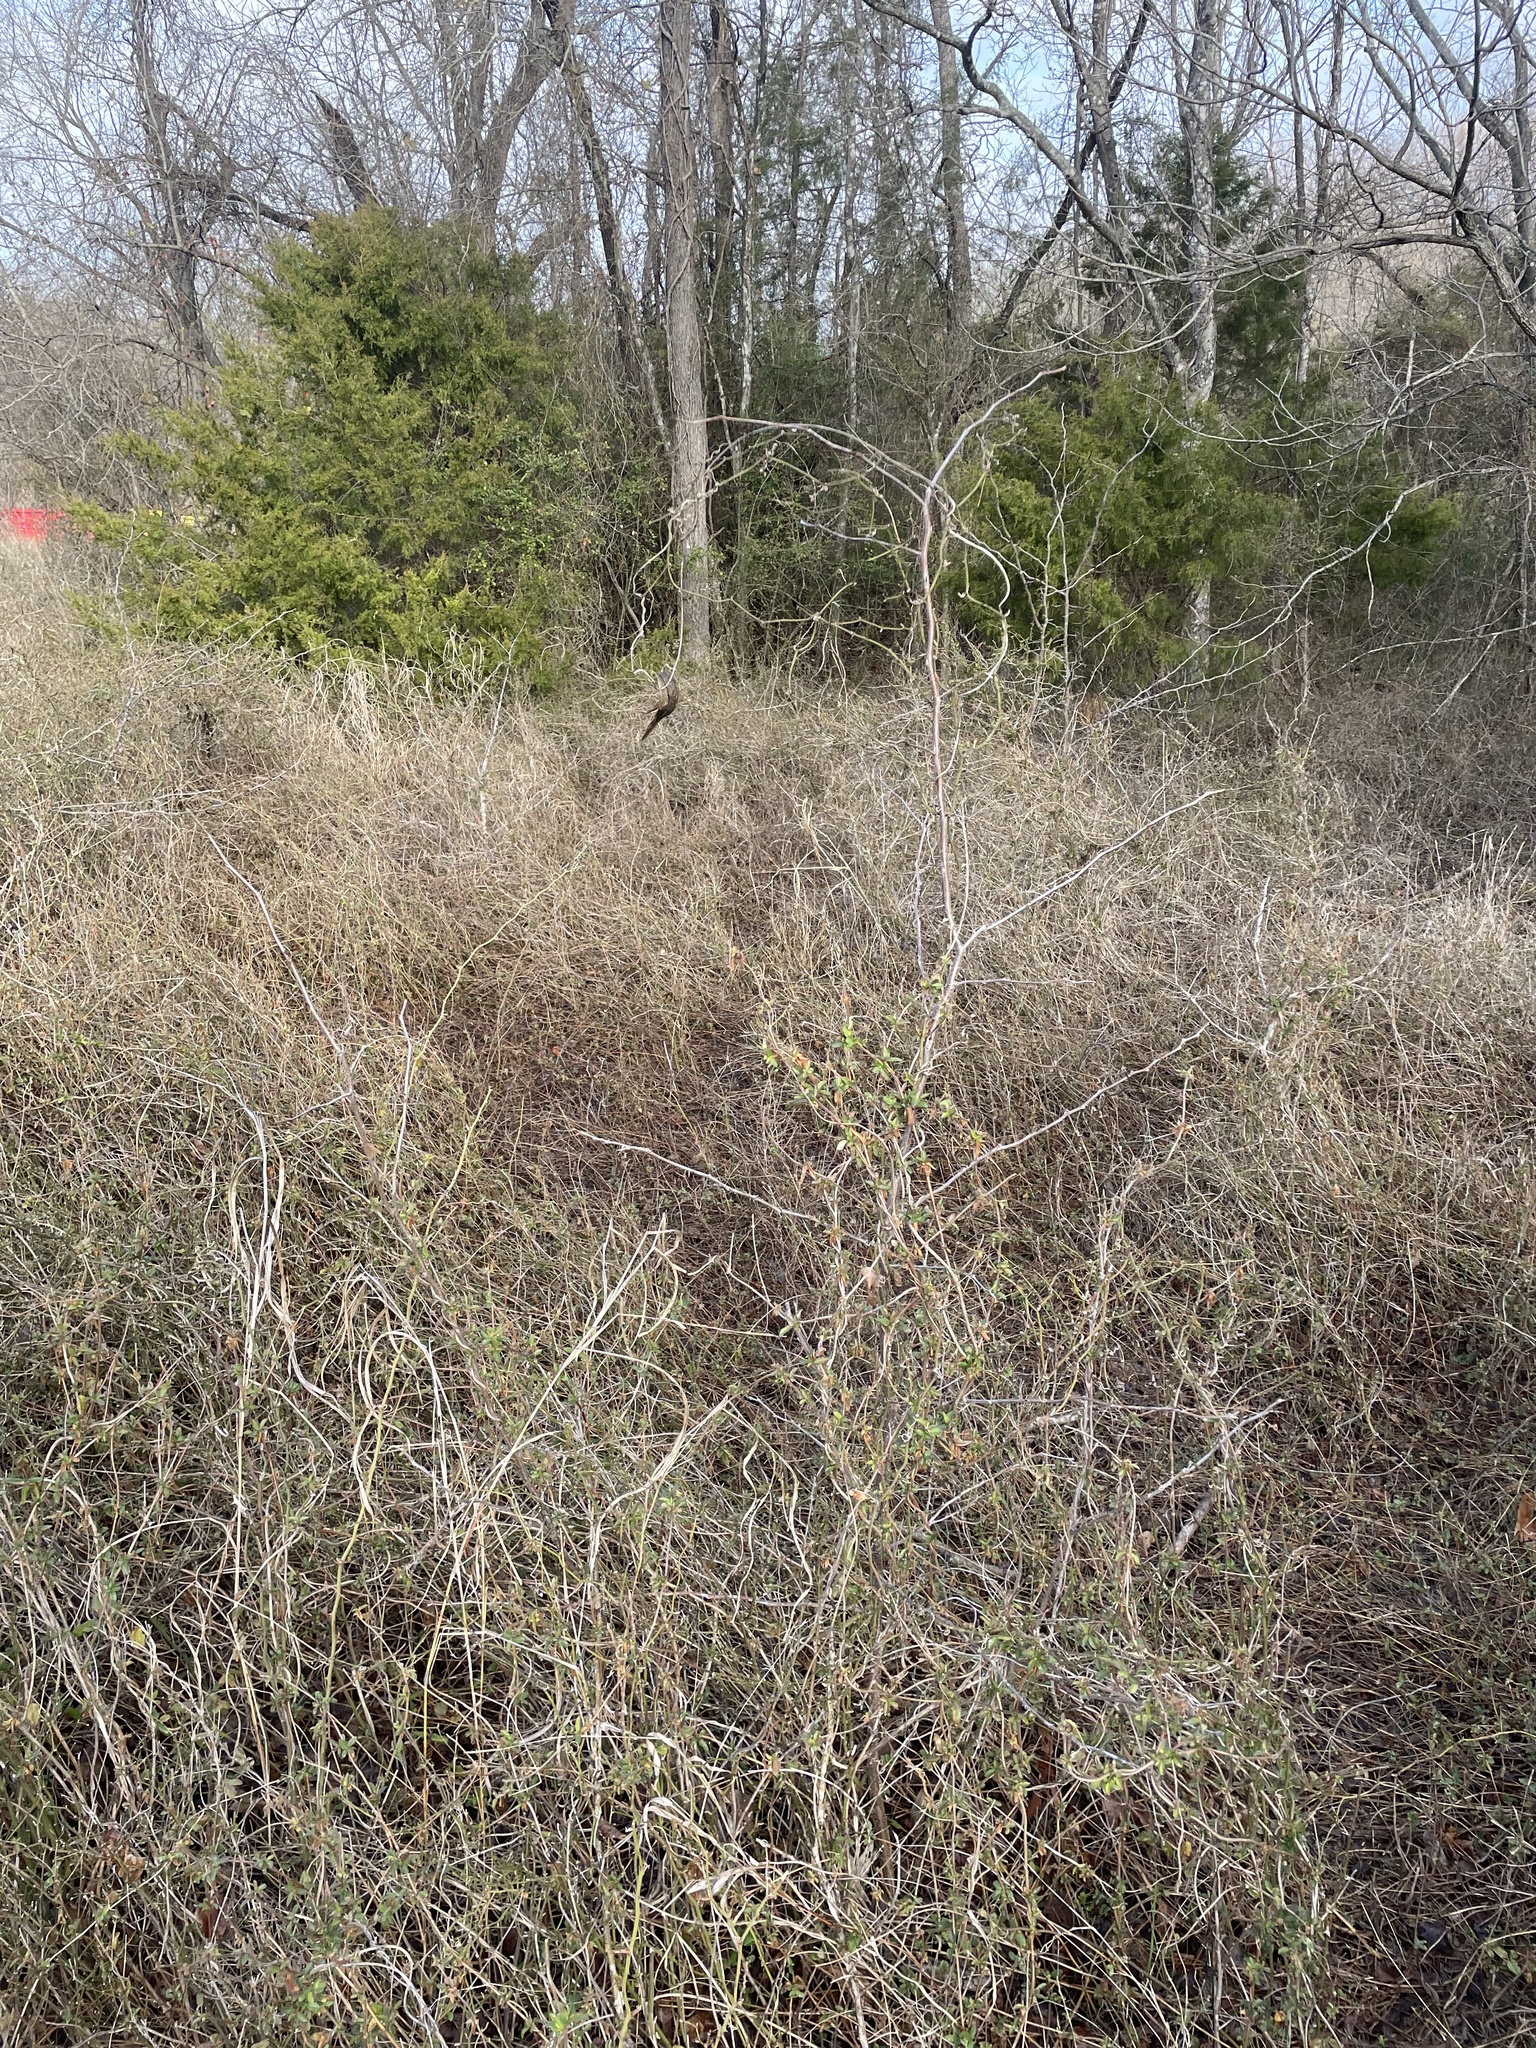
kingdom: Plantae
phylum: Tracheophyta
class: Magnoliopsida
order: Gentianales
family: Apocynaceae
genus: Gonolobus
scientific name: Gonolobus suberosus
